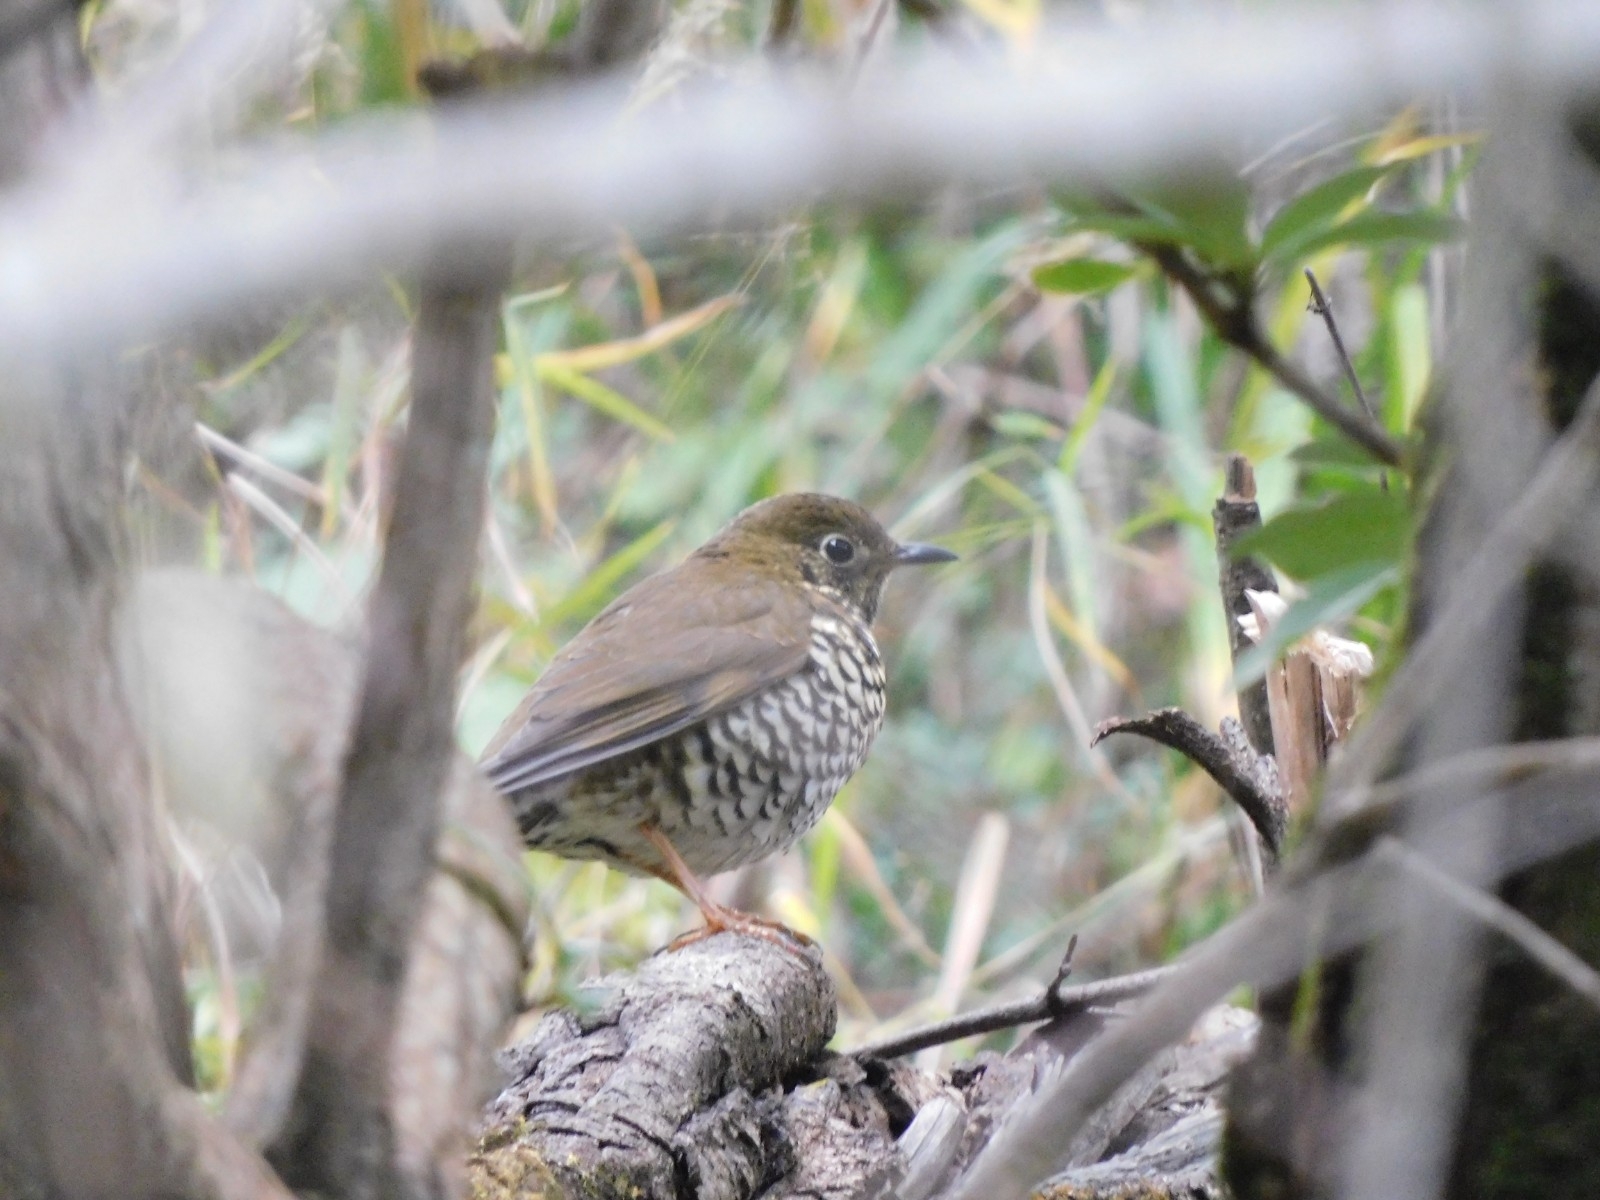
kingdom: Animalia
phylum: Chordata
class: Aves
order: Passeriformes
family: Turdidae
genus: Zoothera
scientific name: Zoothera mollissima
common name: Plain-backed thrush
